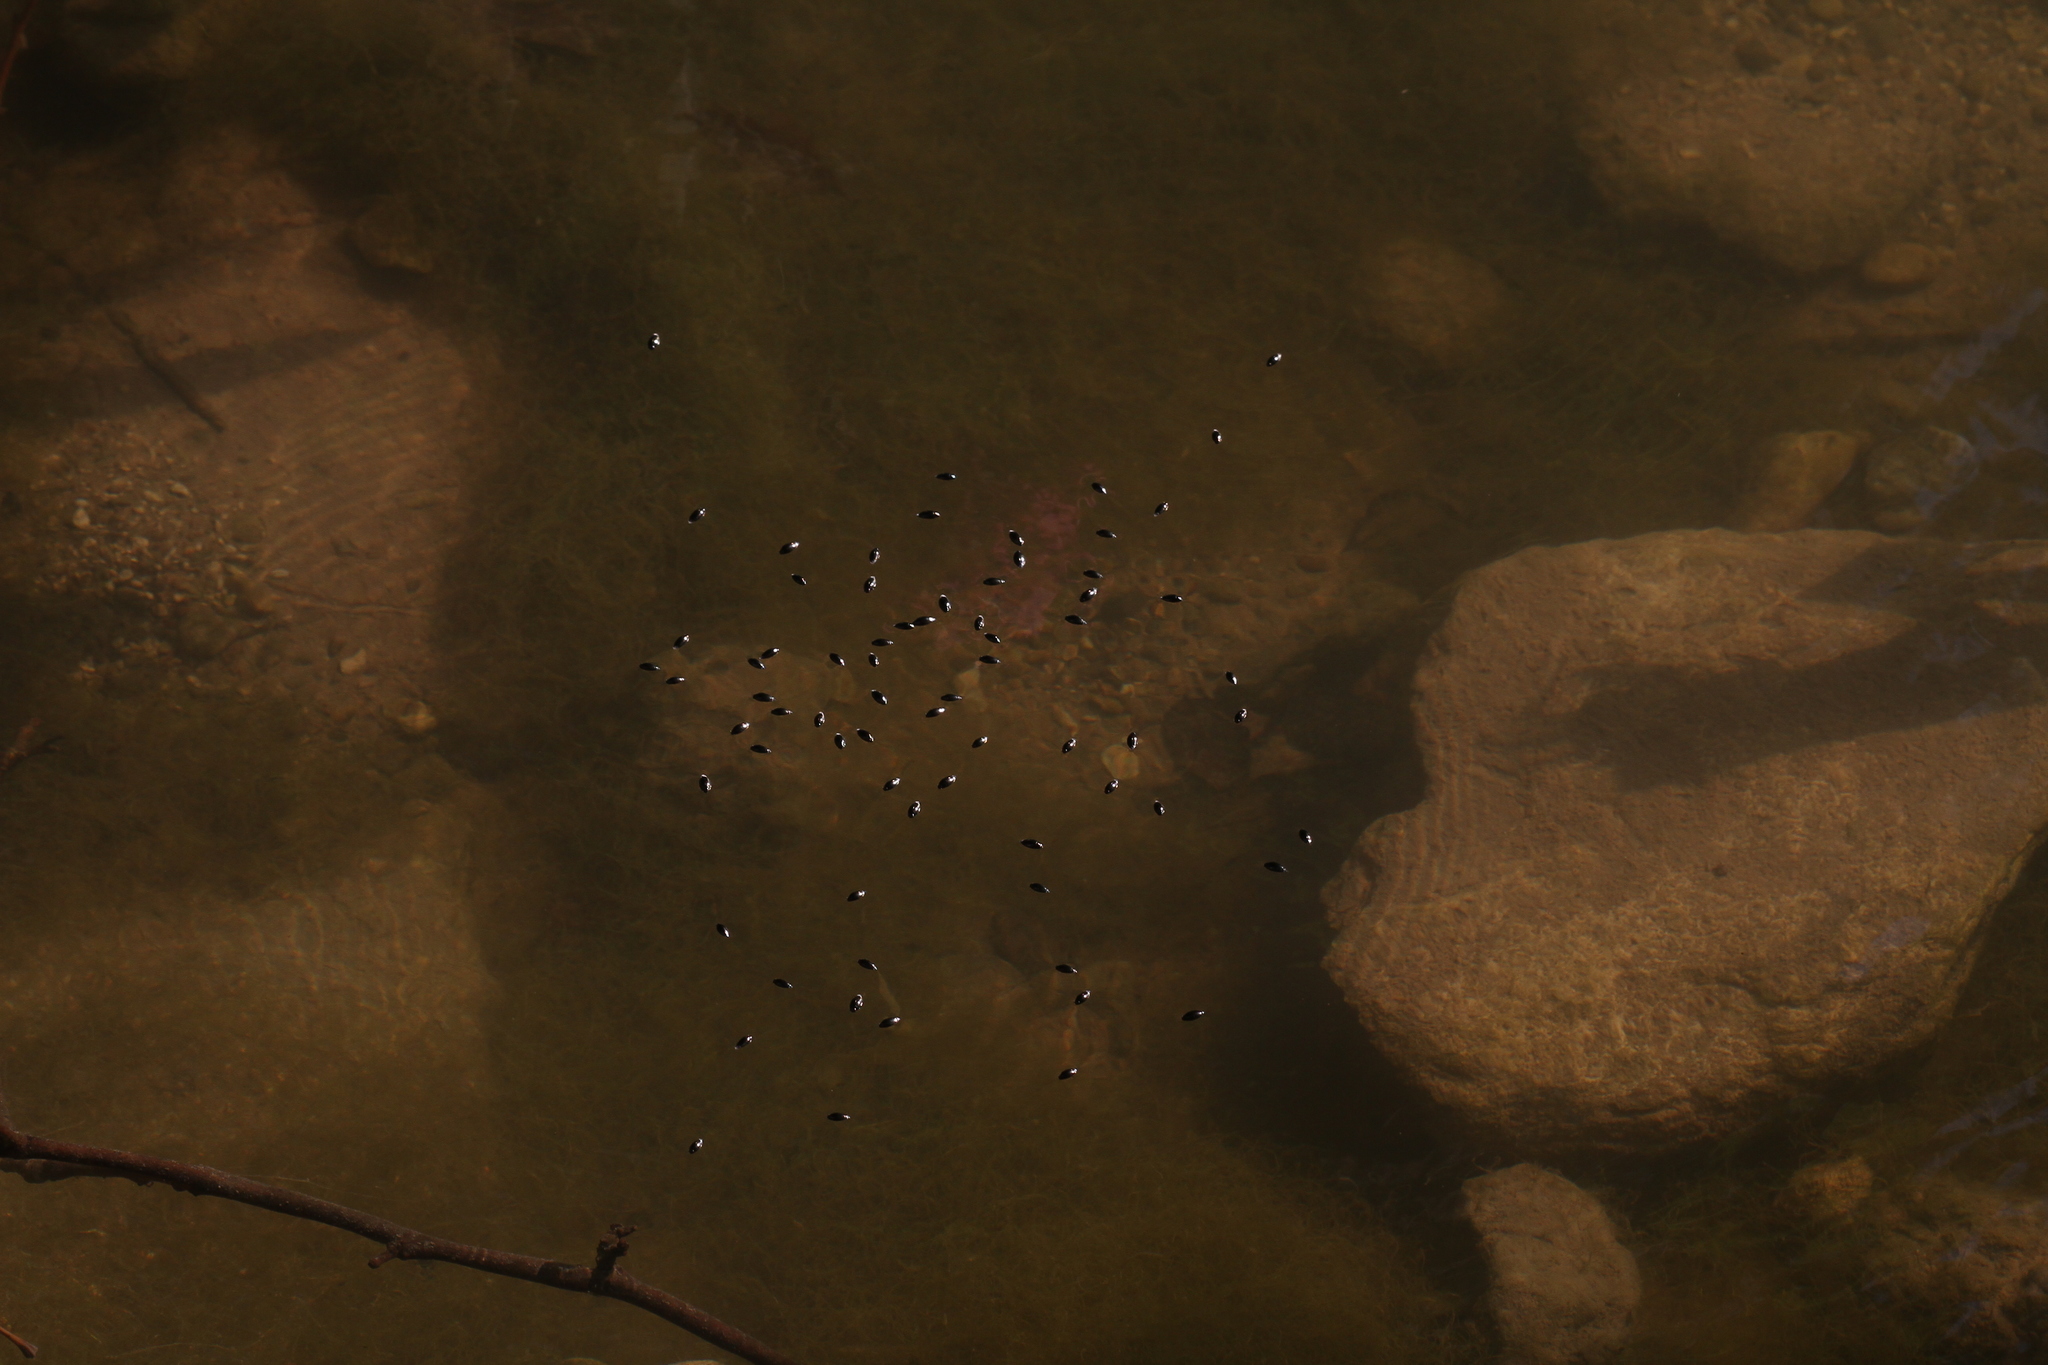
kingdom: Animalia
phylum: Arthropoda
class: Insecta
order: Coleoptera
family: Gyrinidae
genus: Gyrinus
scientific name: Gyrinus
